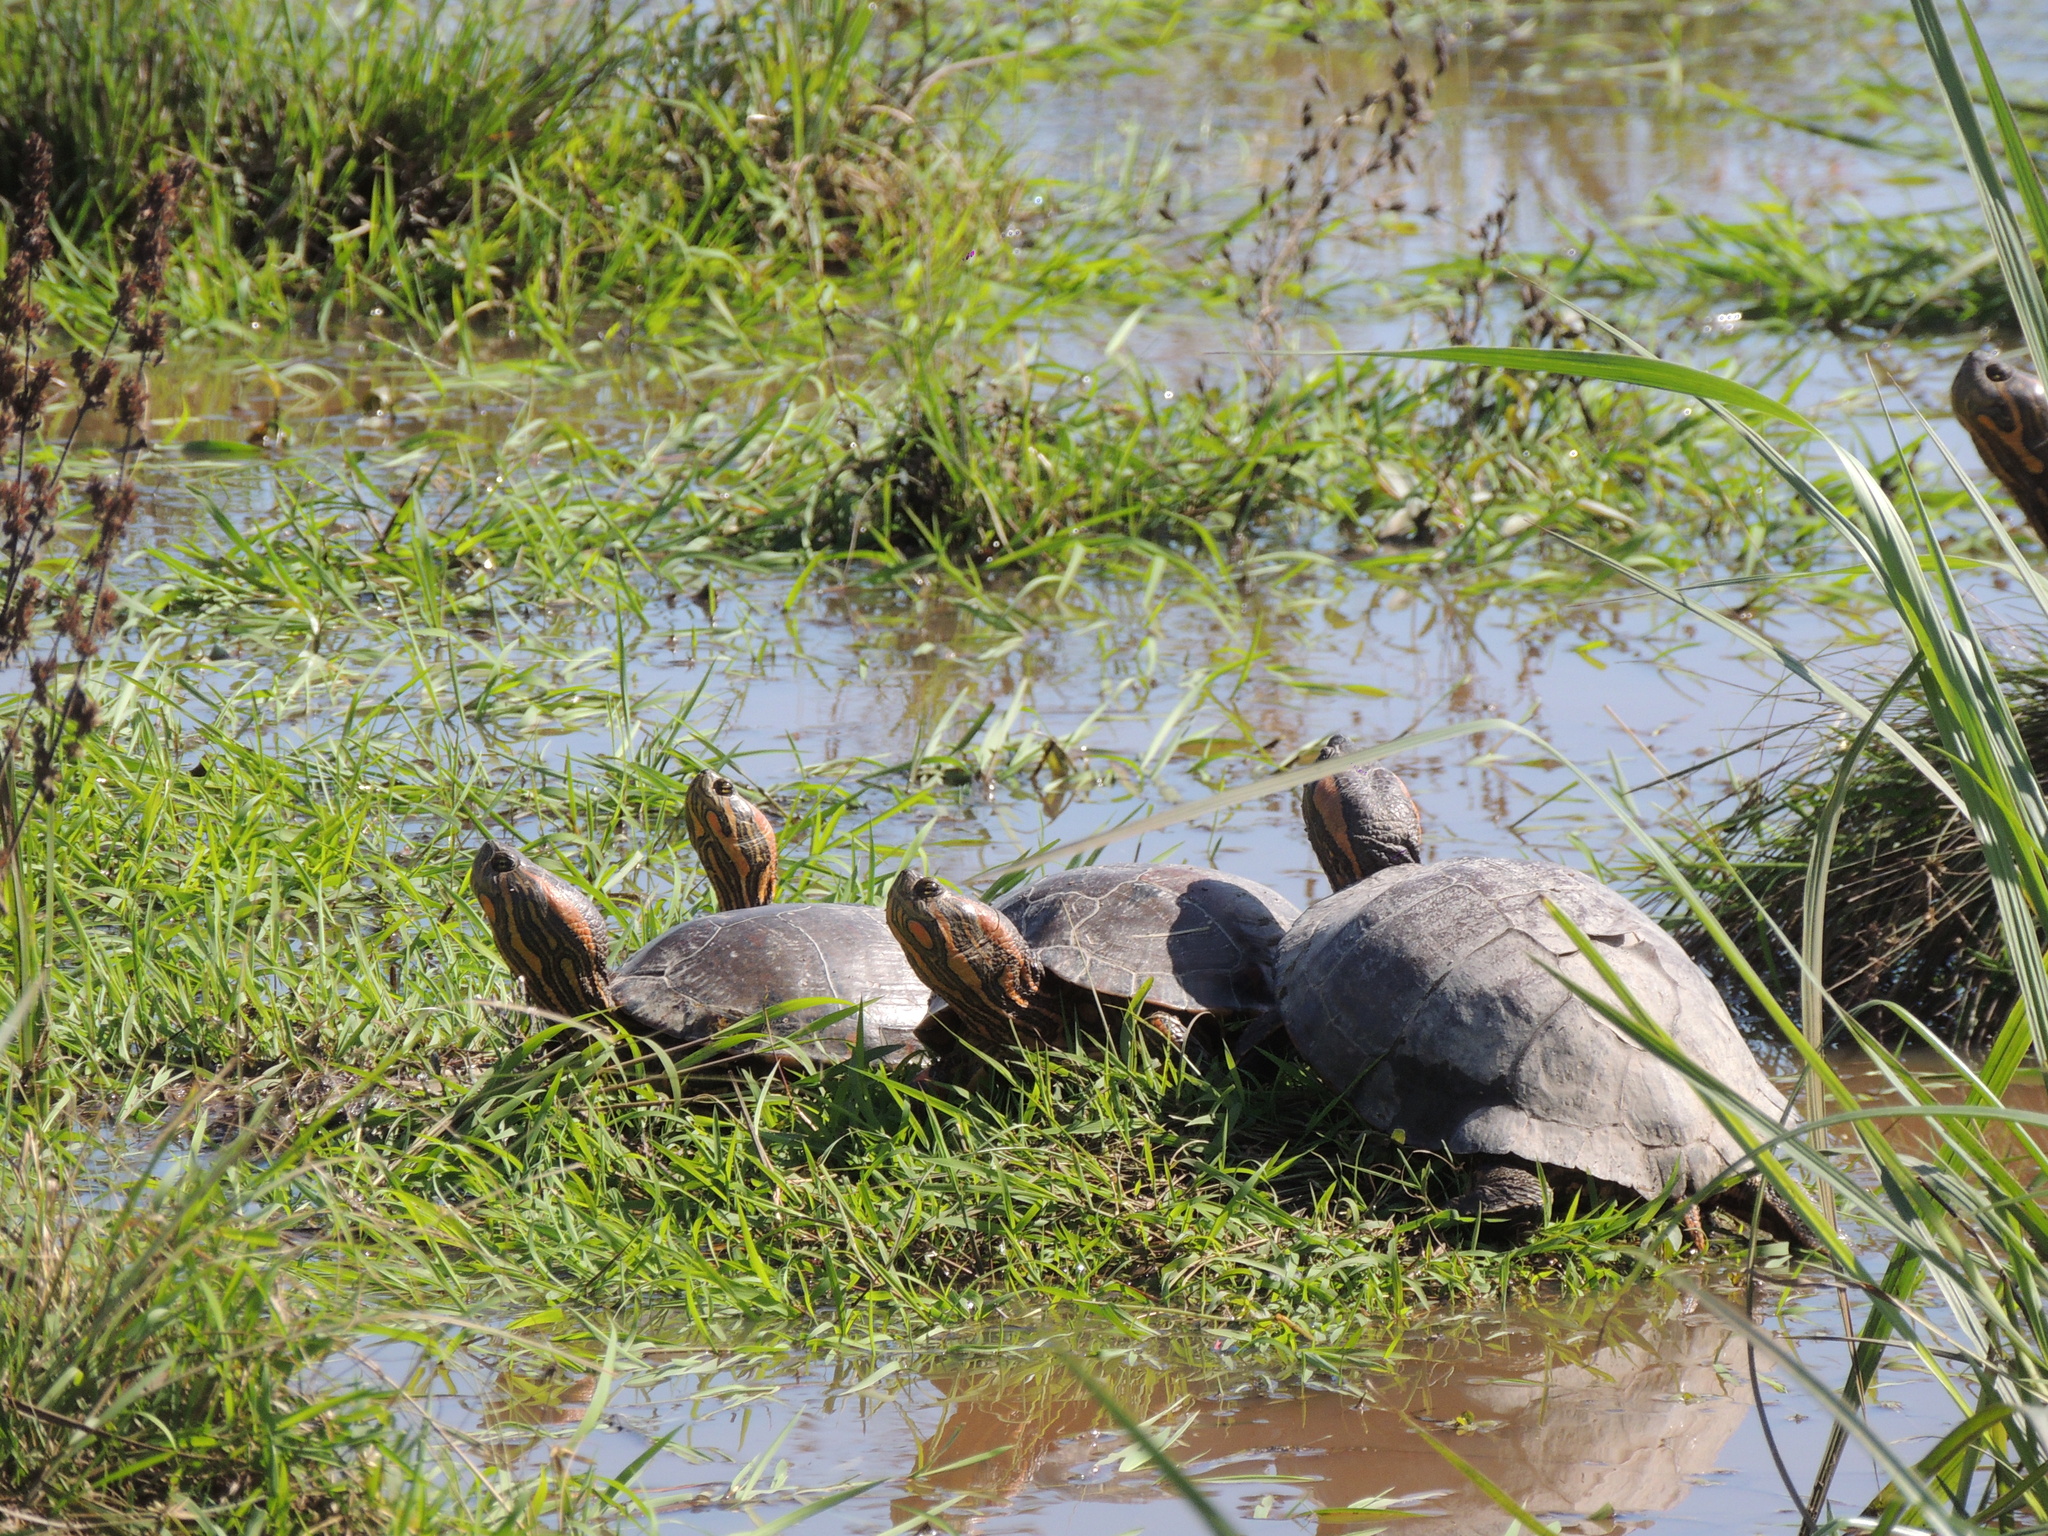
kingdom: Animalia
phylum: Chordata
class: Testudines
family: Emydidae
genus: Trachemys
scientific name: Trachemys dorbigni
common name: Black-bellied slider
